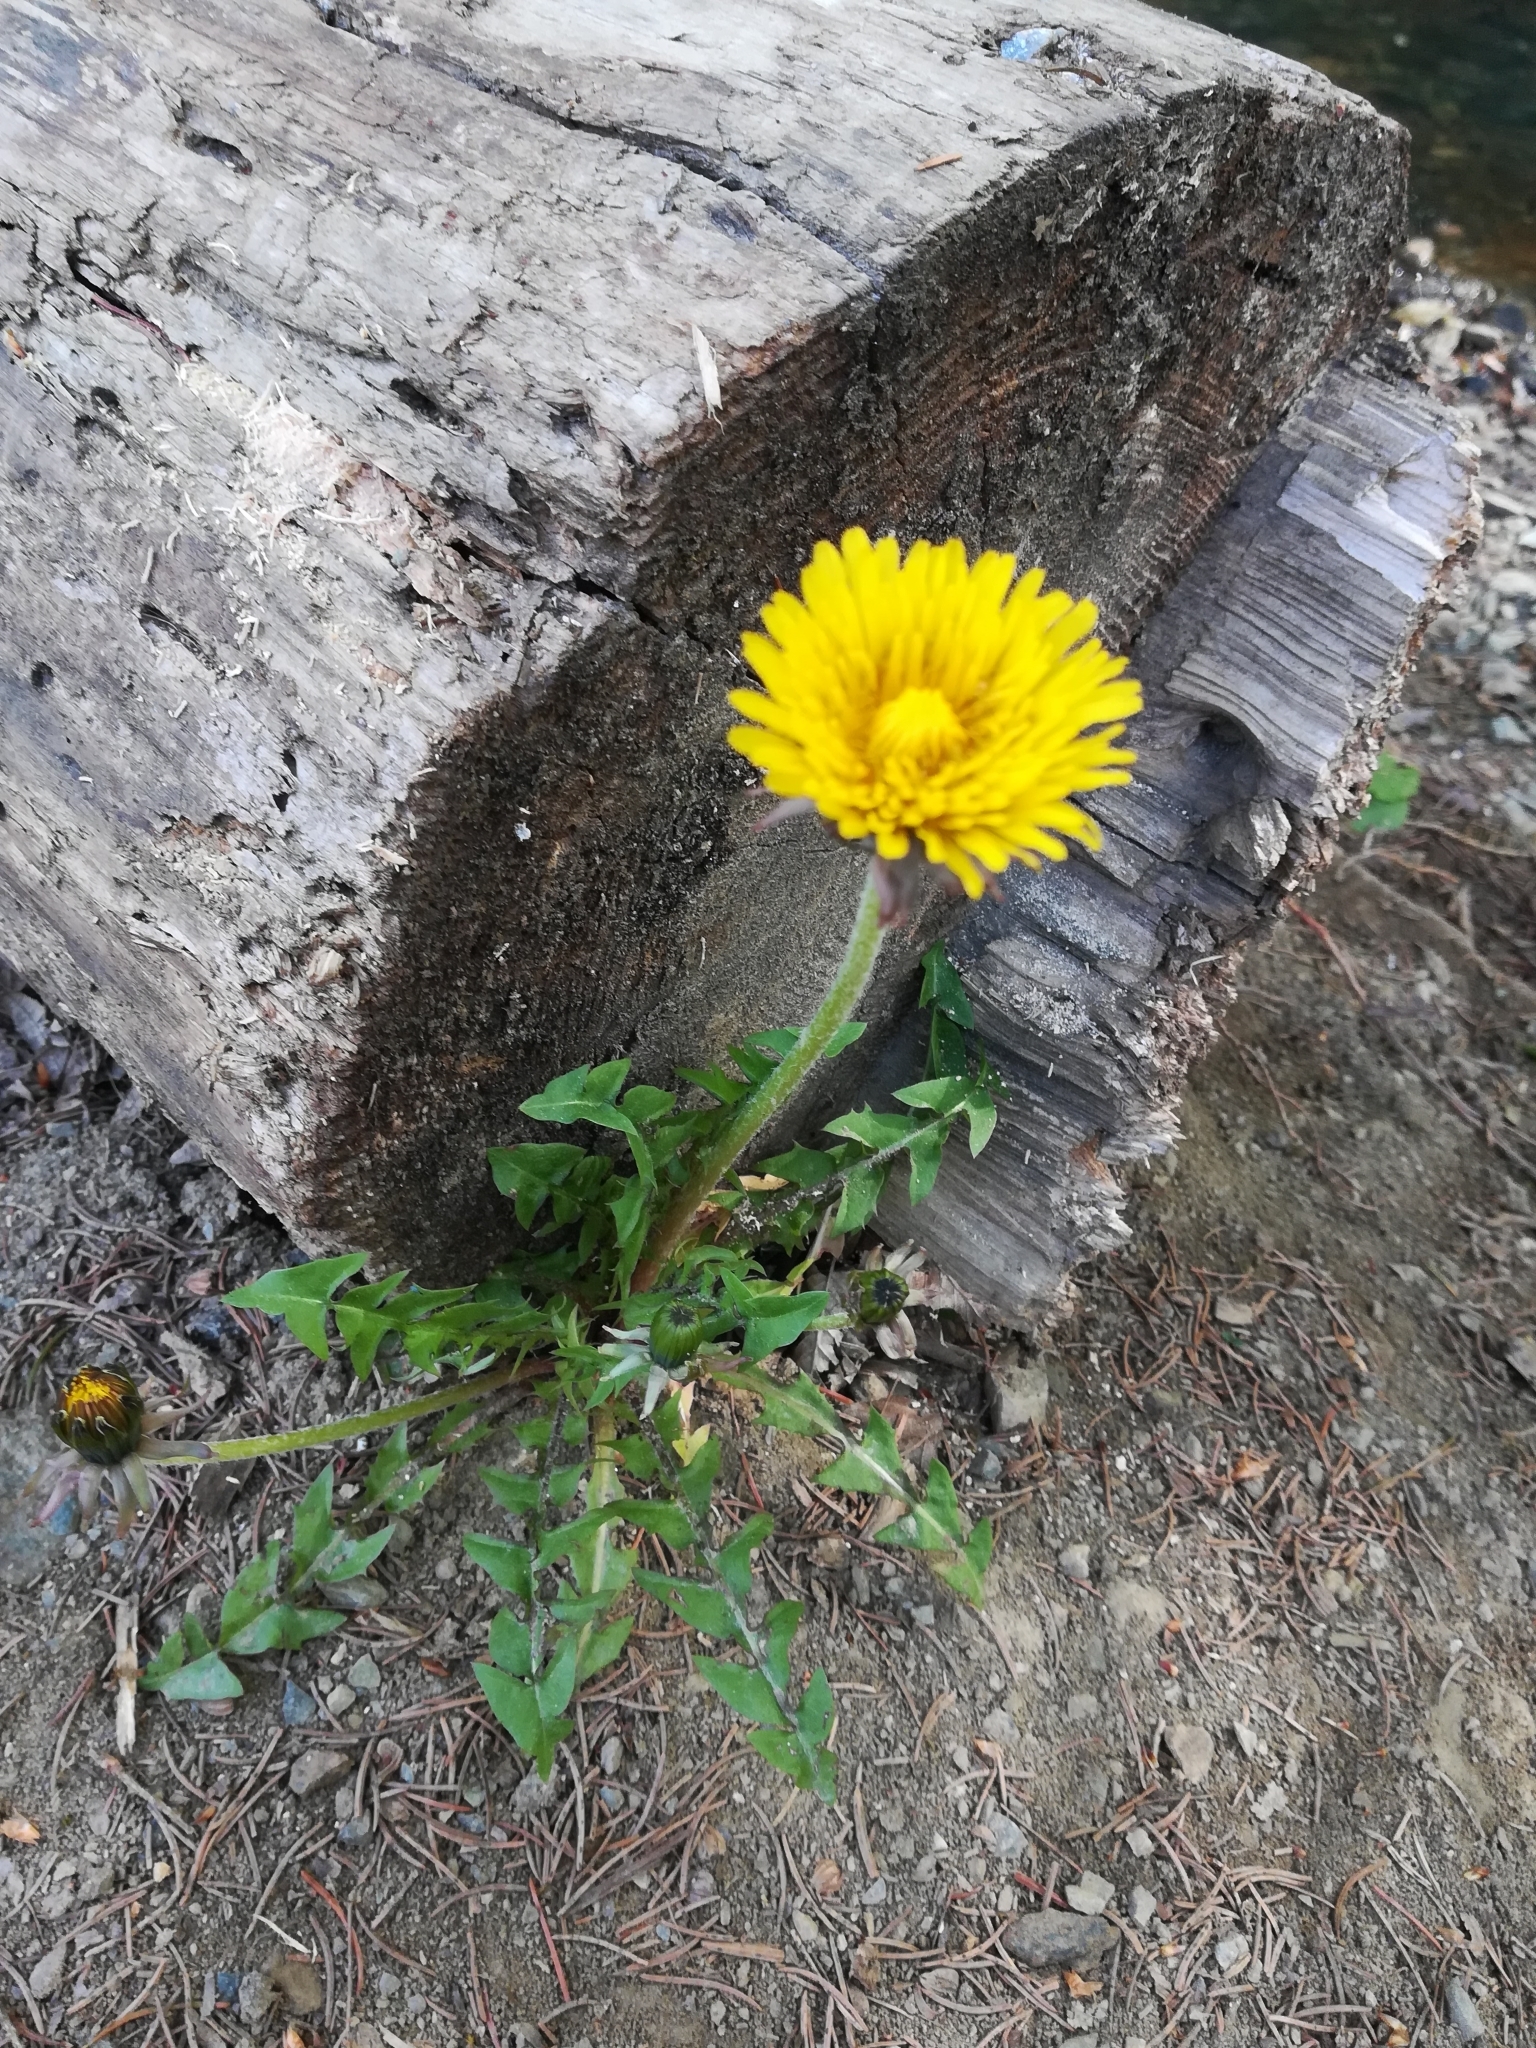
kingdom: Plantae
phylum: Tracheophyta
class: Magnoliopsida
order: Asterales
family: Asteraceae
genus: Taraxacum
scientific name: Taraxacum officinale
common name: Common dandelion
